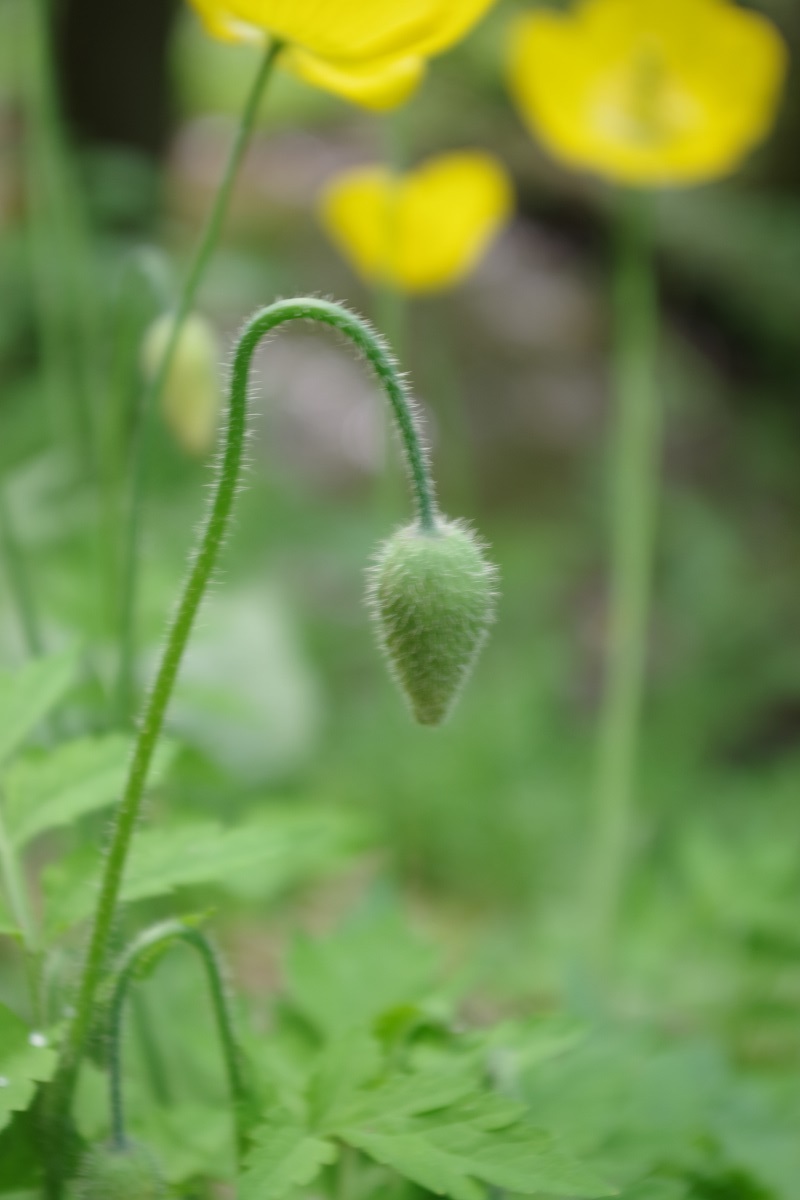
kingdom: Plantae
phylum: Tracheophyta
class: Magnoliopsida
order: Ranunculales
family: Papaveraceae
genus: Papaver
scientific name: Papaver cambricum
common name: Poppy
